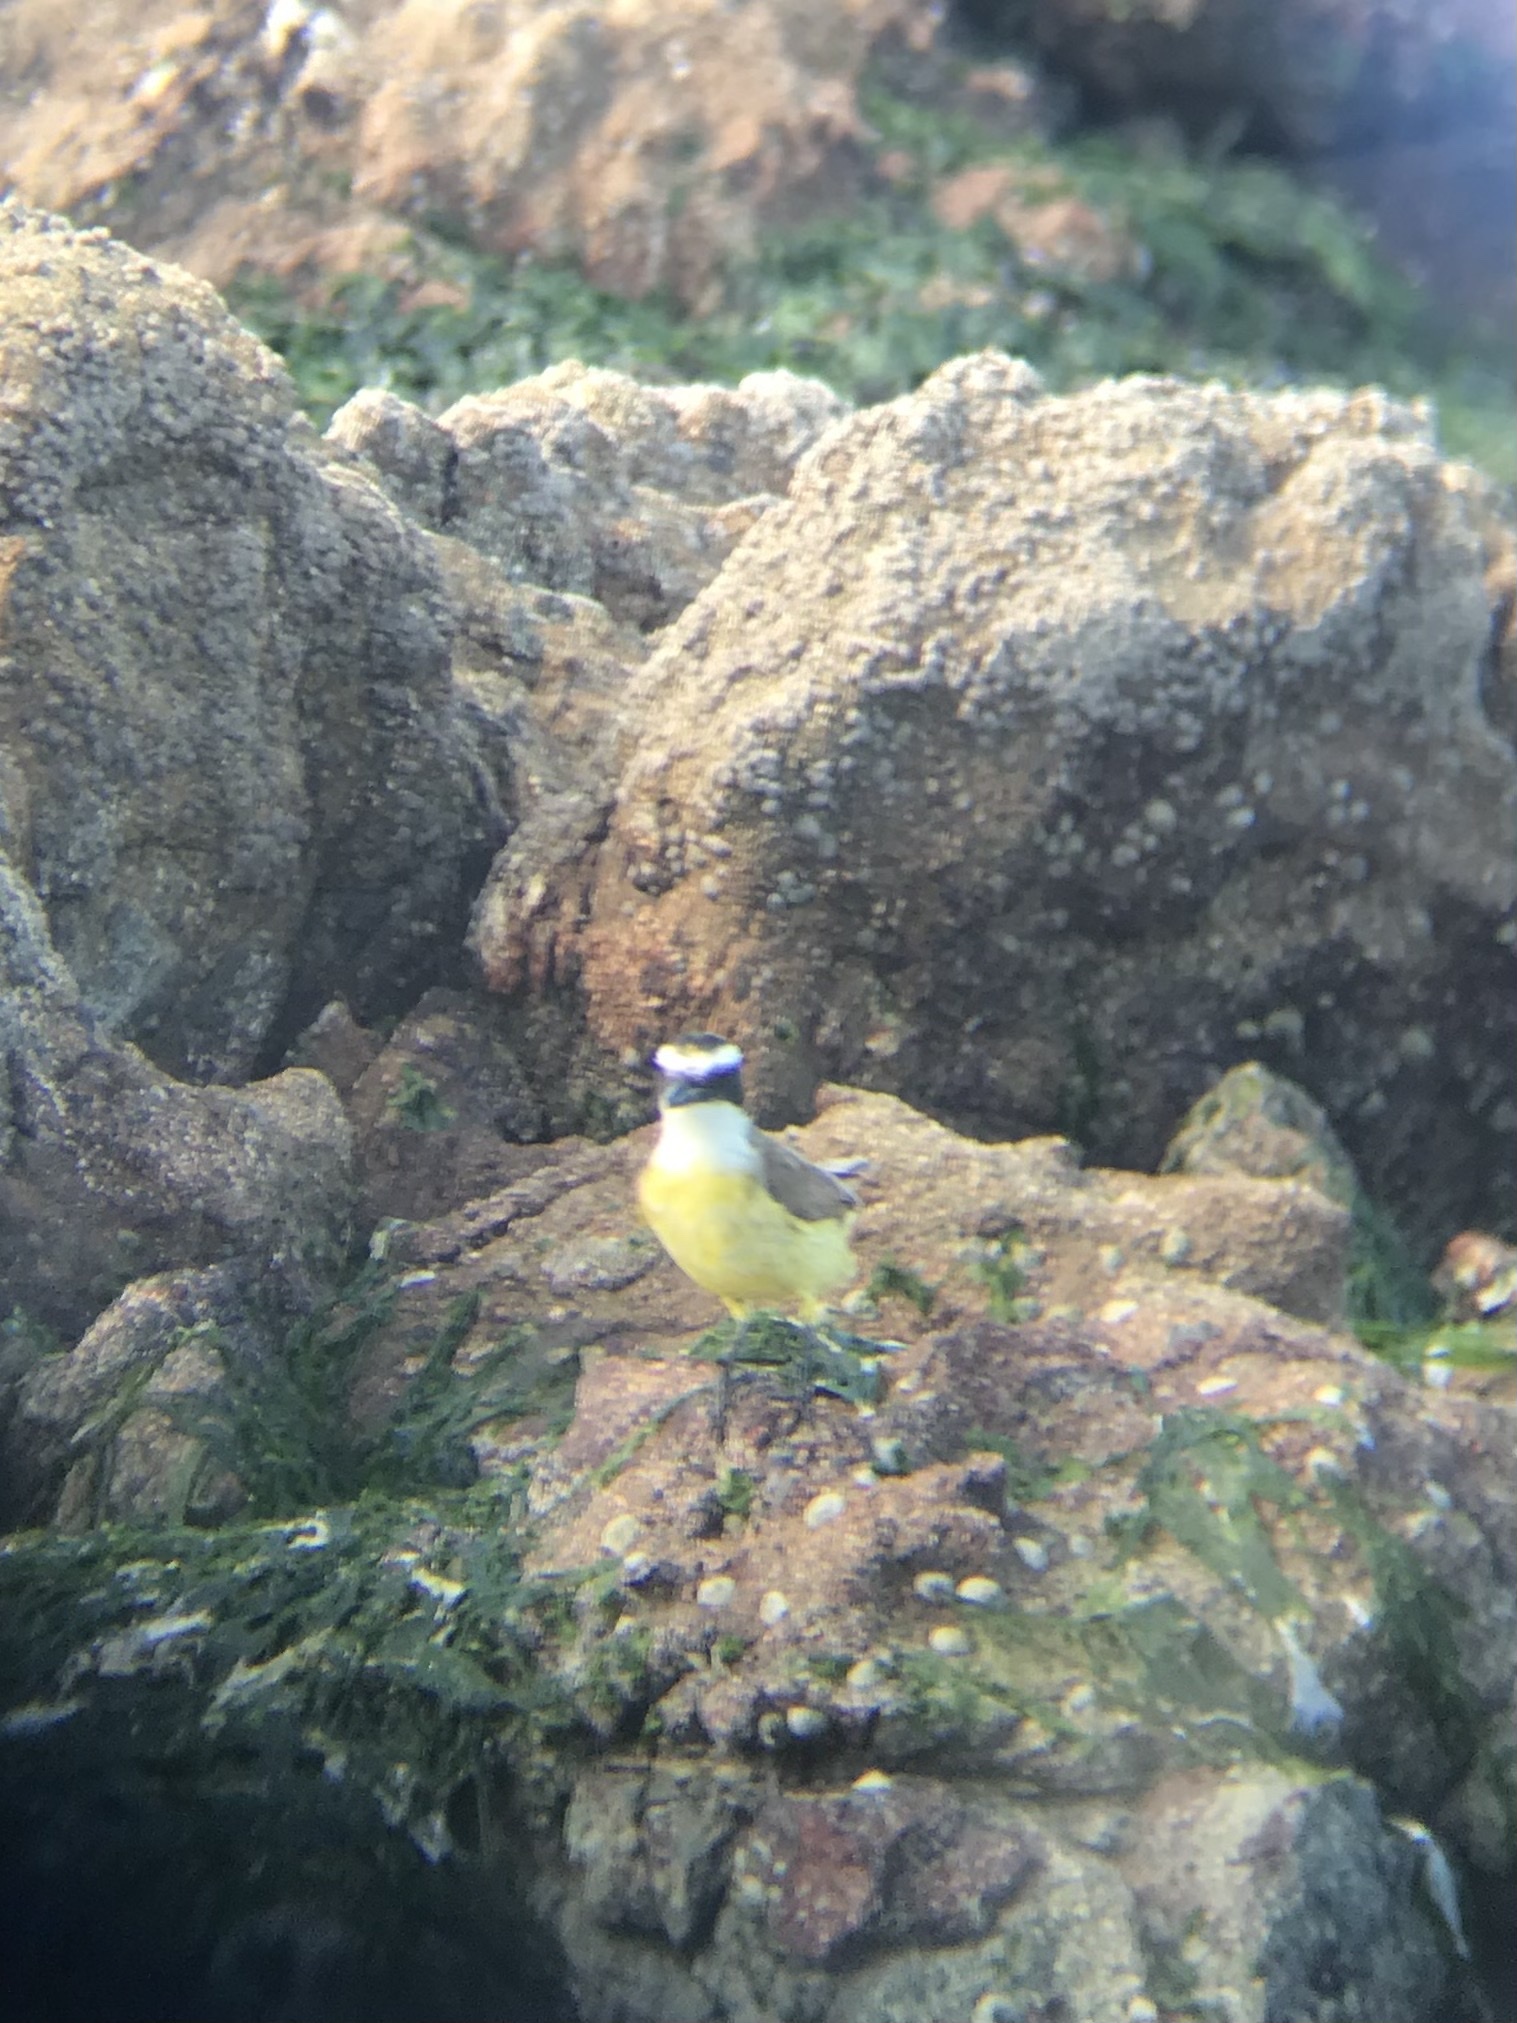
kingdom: Animalia
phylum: Chordata
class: Aves
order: Passeriformes
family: Tyrannidae
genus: Pitangus
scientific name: Pitangus sulphuratus
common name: Great kiskadee
